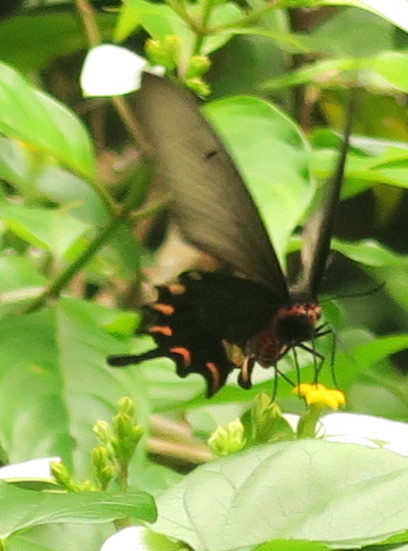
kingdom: Animalia
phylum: Arthropoda
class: Insecta
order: Lepidoptera
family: Papilionidae
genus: Byasa
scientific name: Byasa alcinous
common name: Chinese windmill
